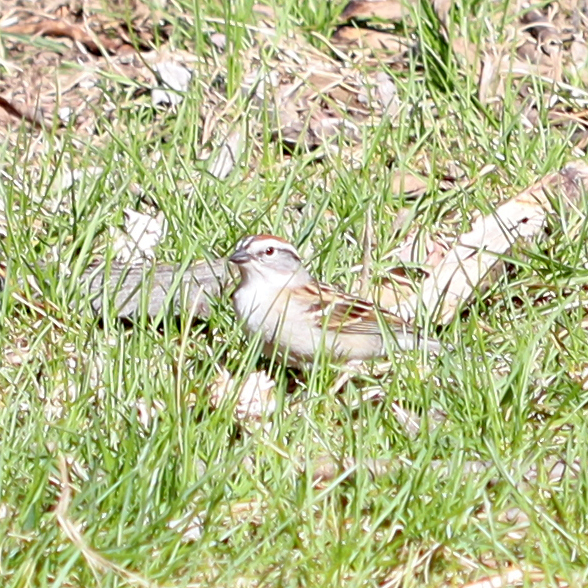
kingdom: Animalia
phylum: Chordata
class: Aves
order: Passeriformes
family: Passerellidae
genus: Spizella
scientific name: Spizella passerina
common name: Chipping sparrow
